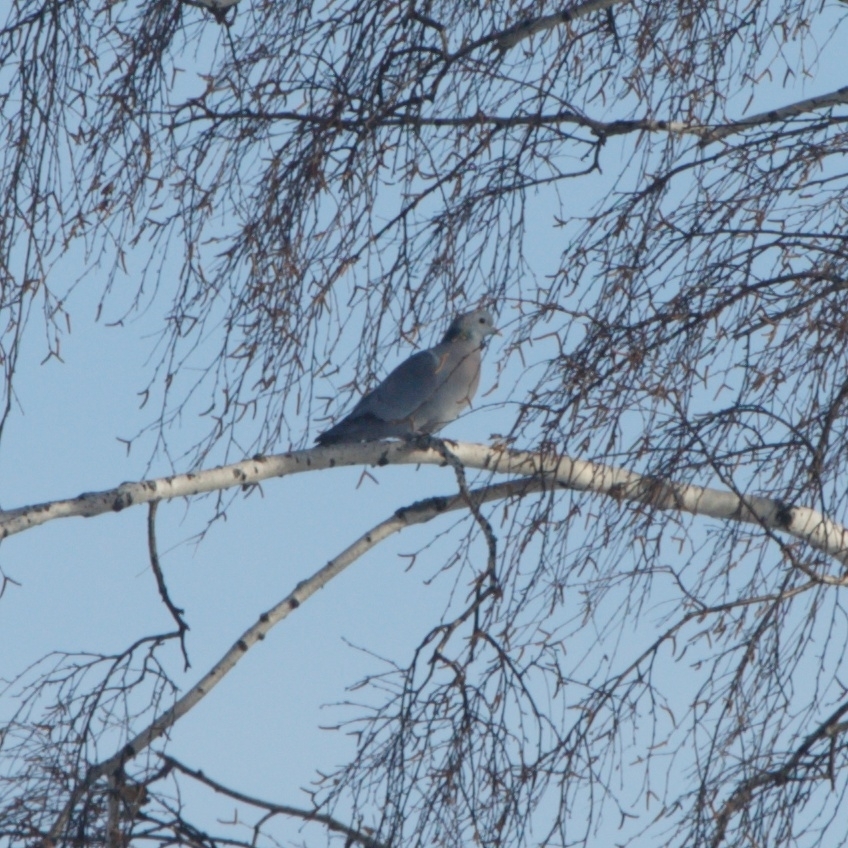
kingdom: Animalia
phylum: Chordata
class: Aves
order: Columbiformes
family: Columbidae
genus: Columba
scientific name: Columba oenas
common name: Stock dove
